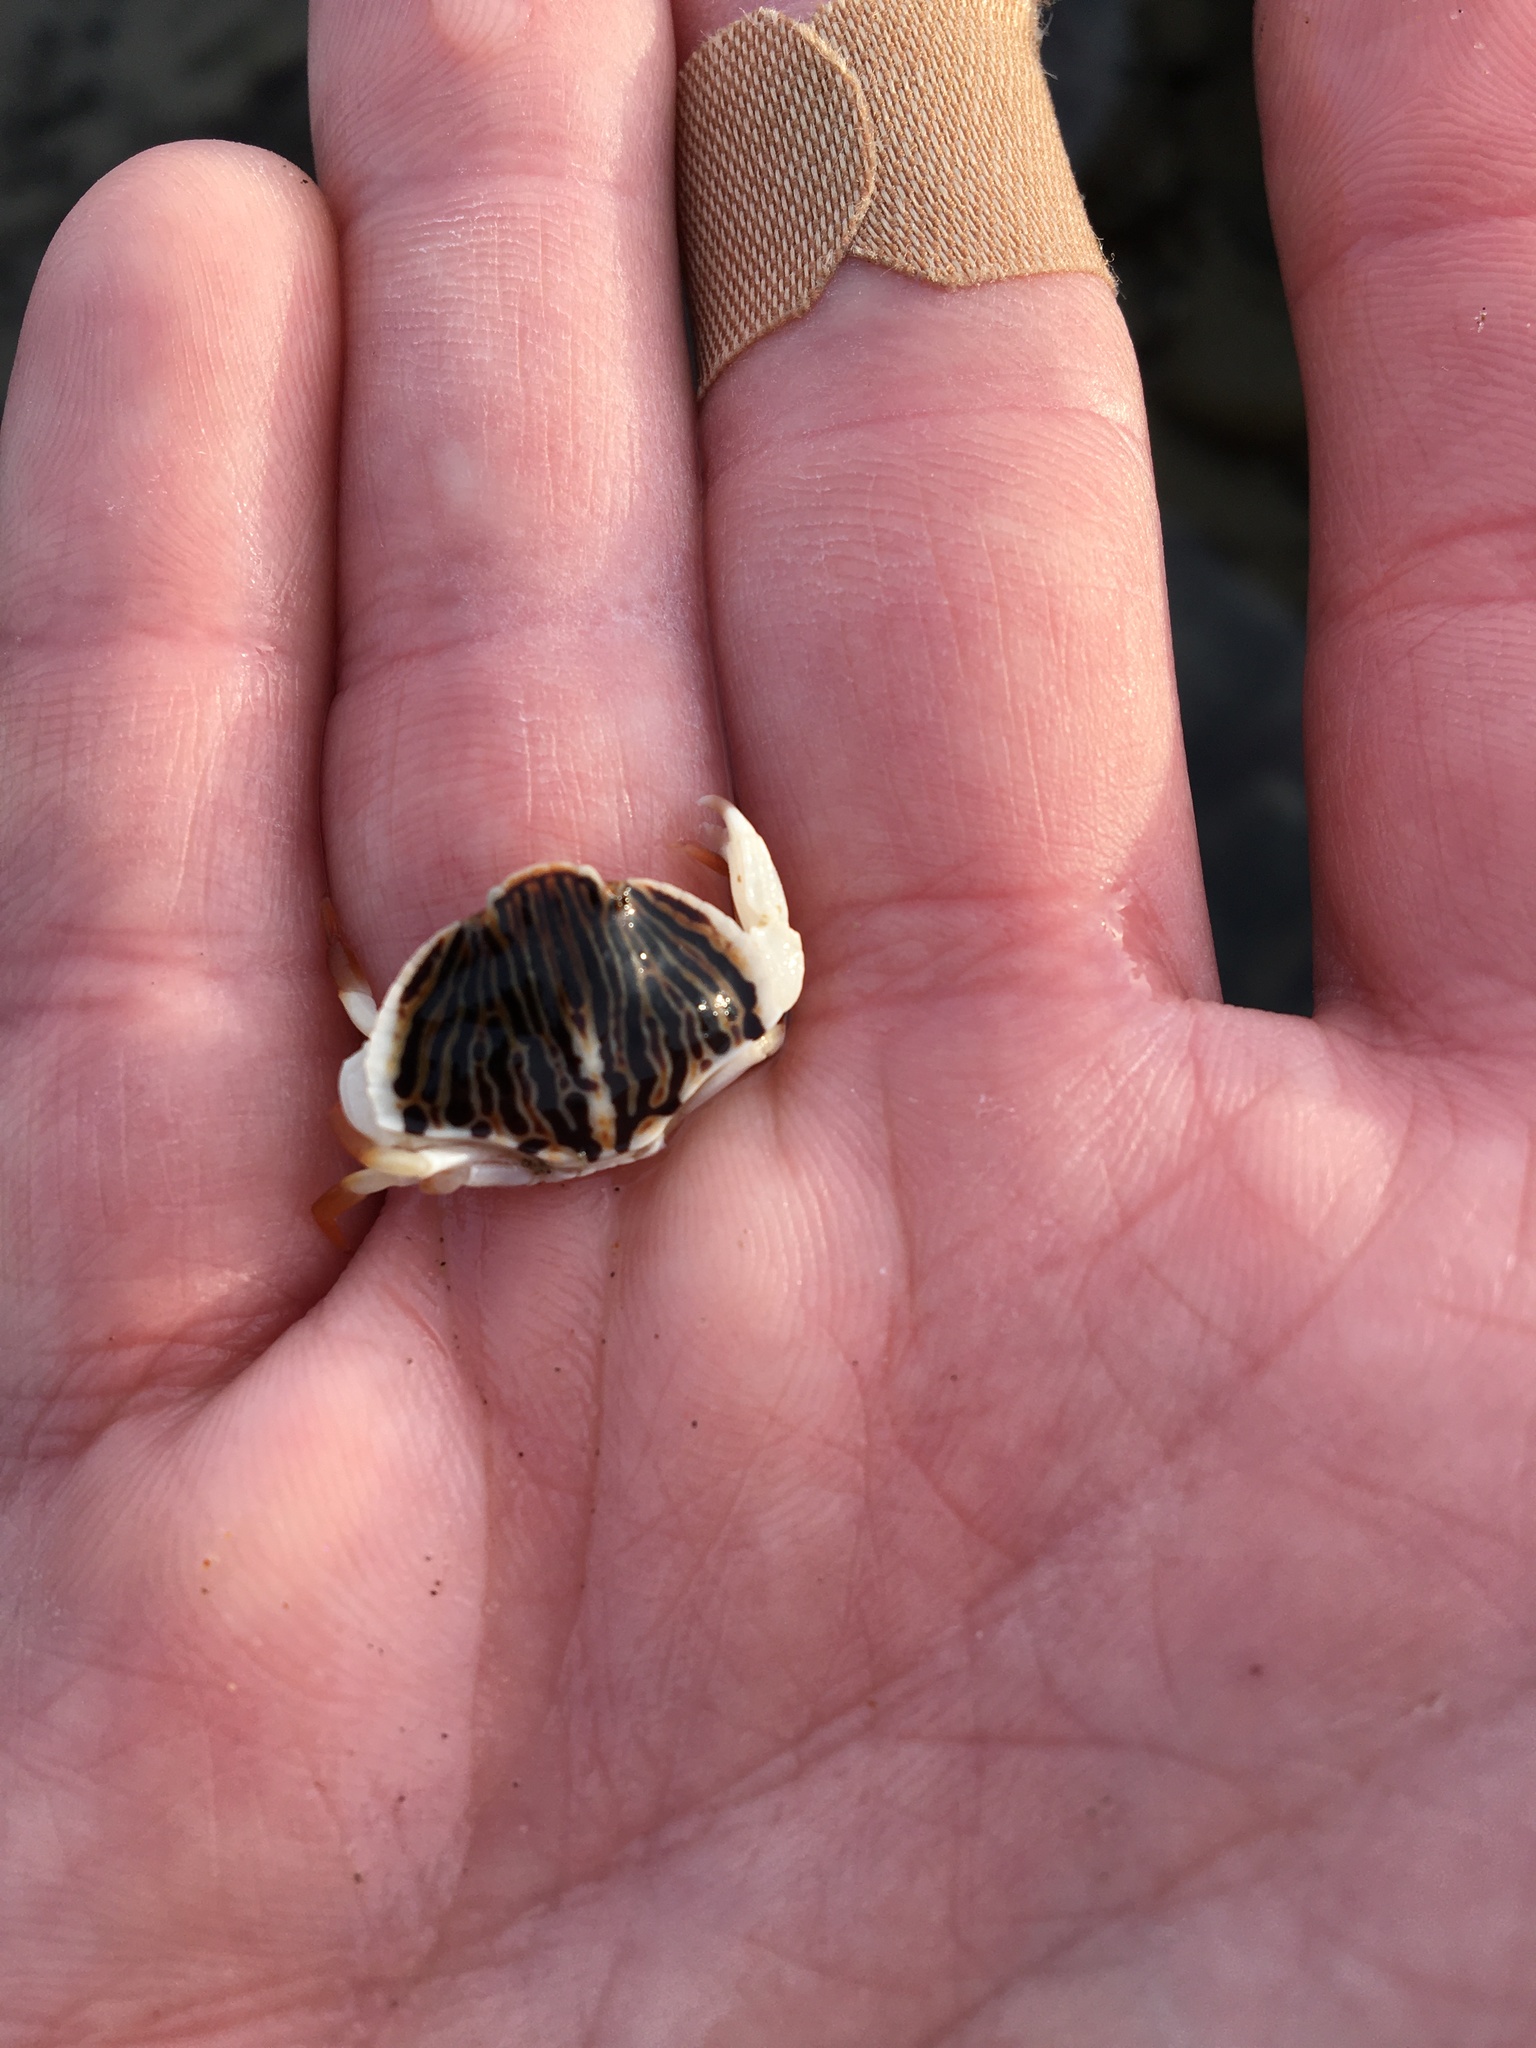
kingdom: Animalia
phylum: Arthropoda
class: Malacostraca
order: Decapoda
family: Cancridae
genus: Cancer
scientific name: Cancer productus
